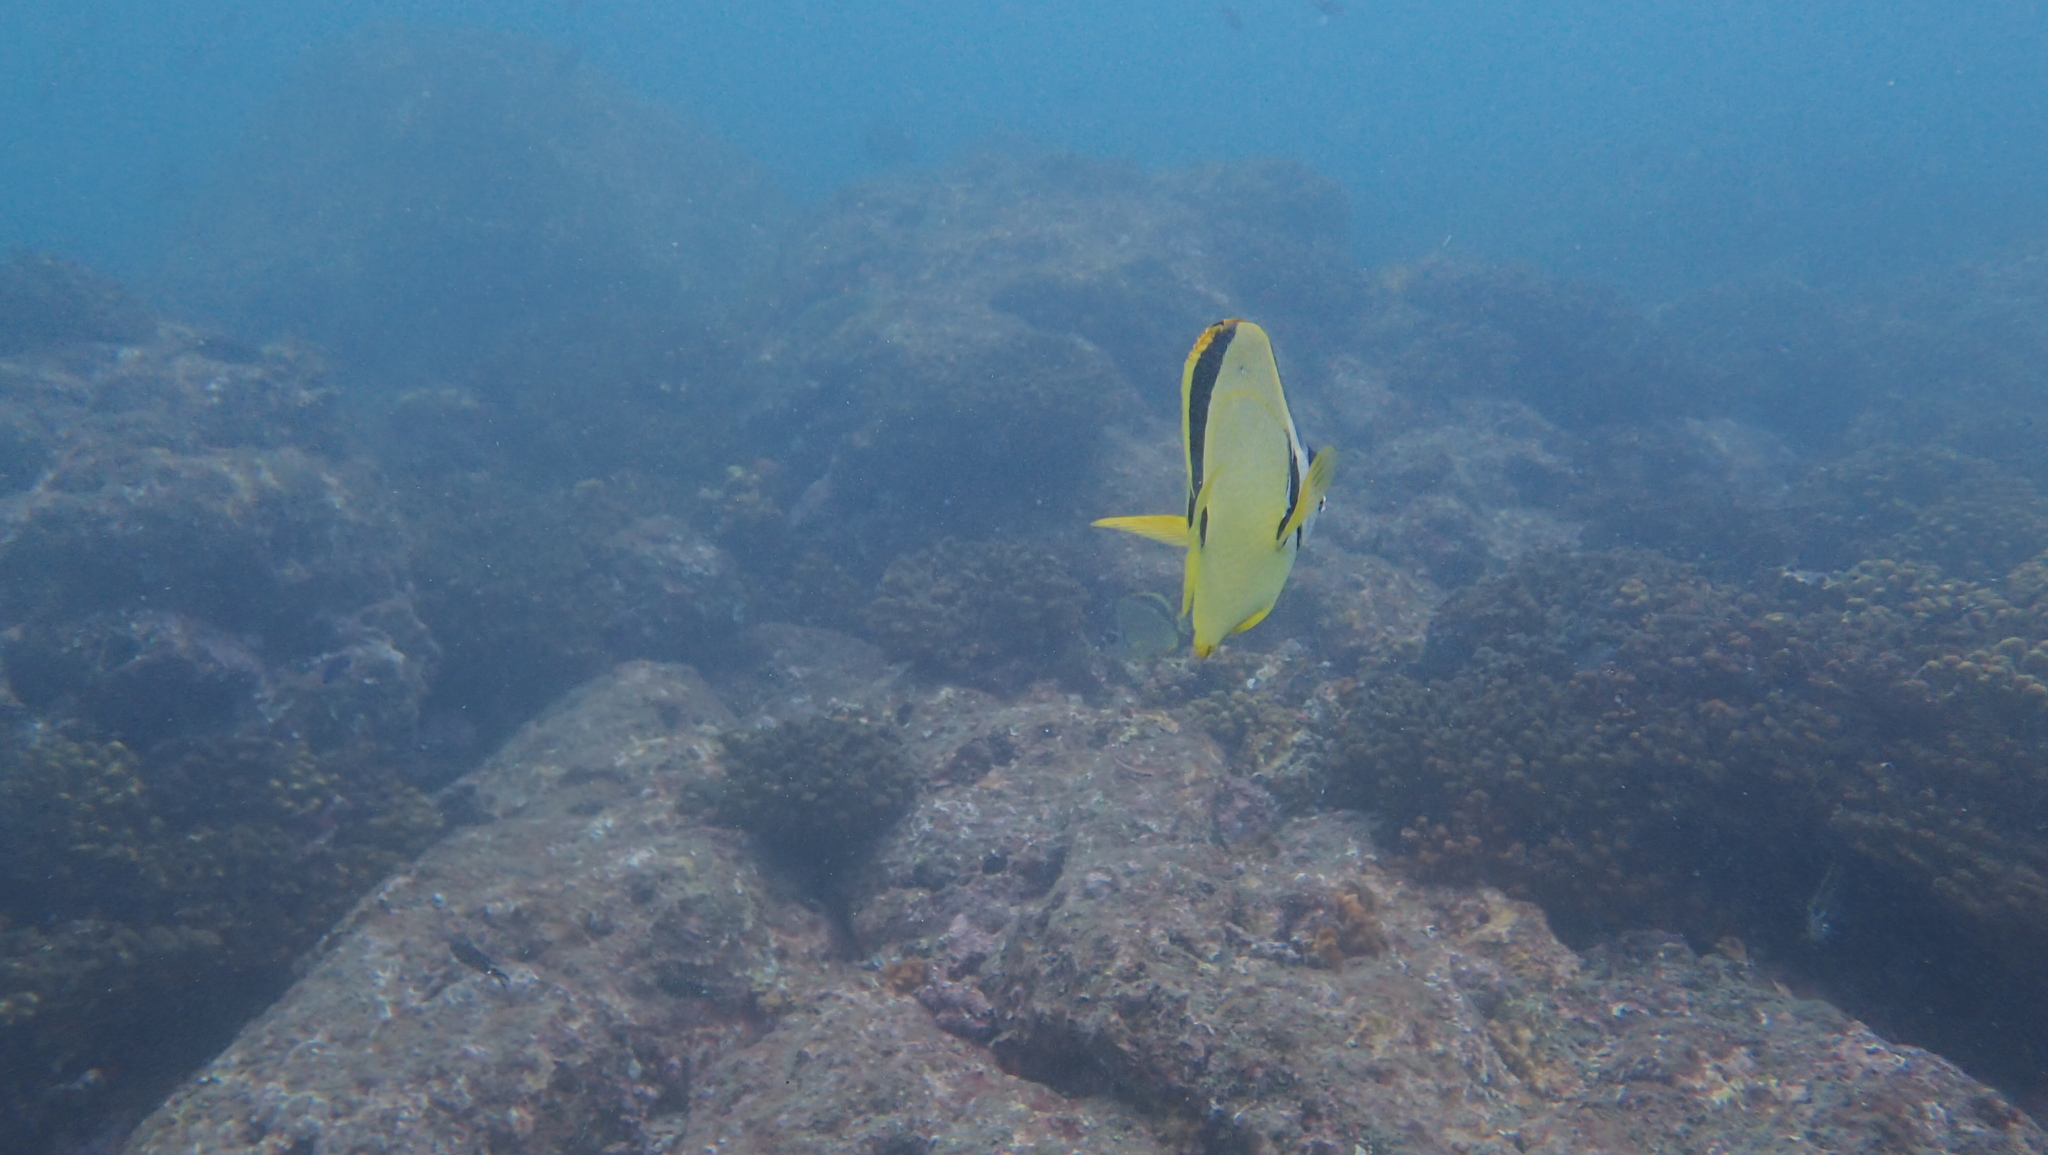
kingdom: Animalia
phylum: Chordata
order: Perciformes
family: Chaetodontidae
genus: Johnrandallia
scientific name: Johnrandallia nigrirostris
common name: Barberfish
